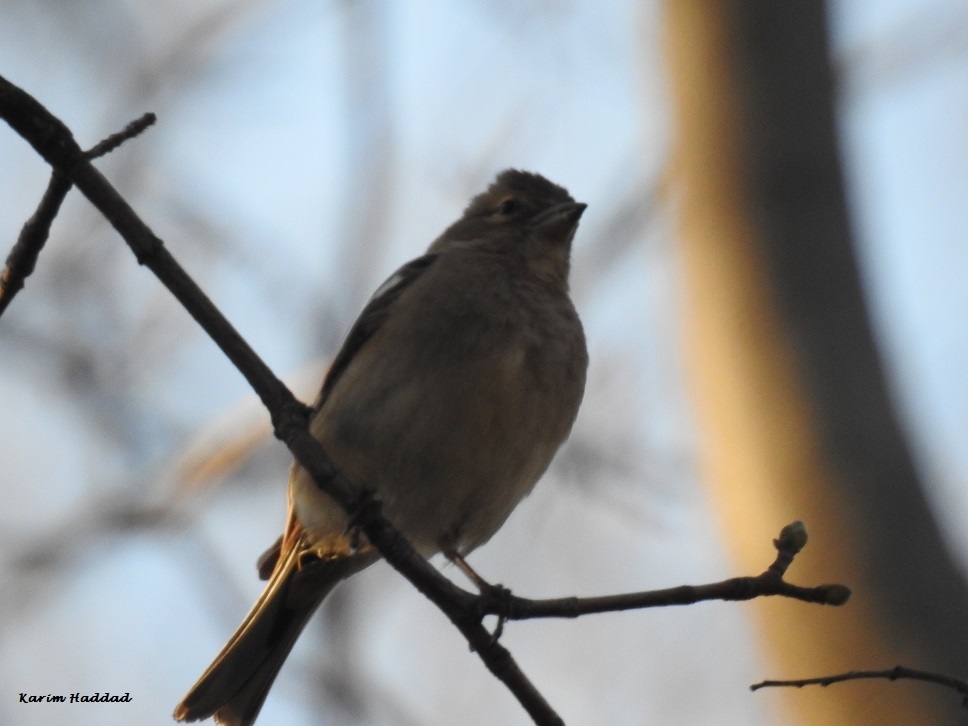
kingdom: Animalia
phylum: Chordata
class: Aves
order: Passeriformes
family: Fringillidae
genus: Fringilla
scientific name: Fringilla coelebs
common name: Common chaffinch
